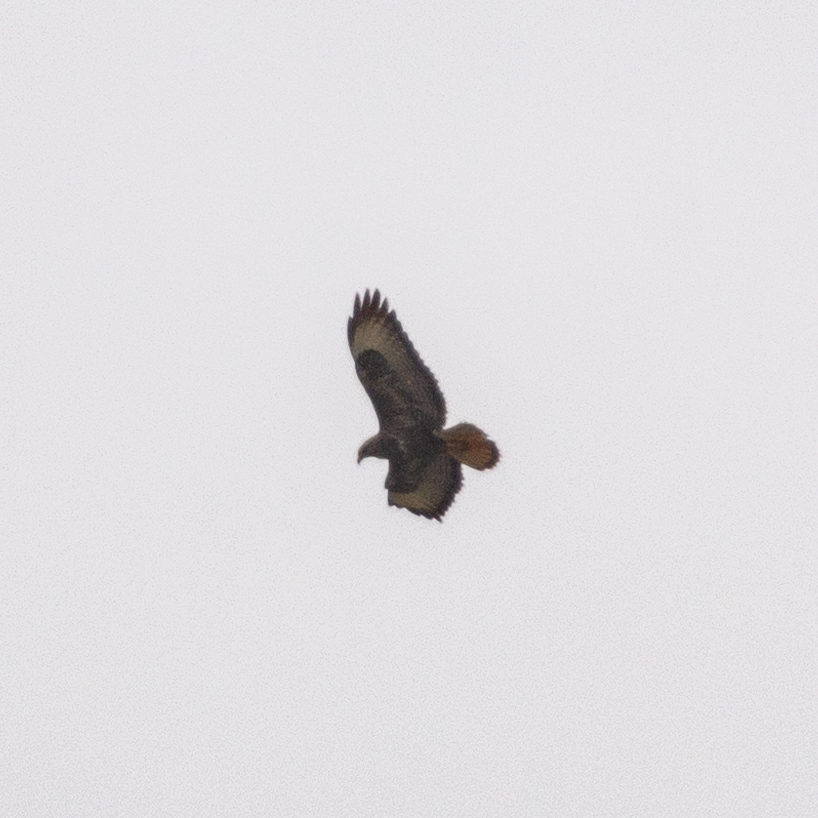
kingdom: Animalia
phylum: Chordata
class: Aves
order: Accipitriformes
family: Accipitridae
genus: Buteo
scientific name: Buteo buteo
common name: Common buzzard
